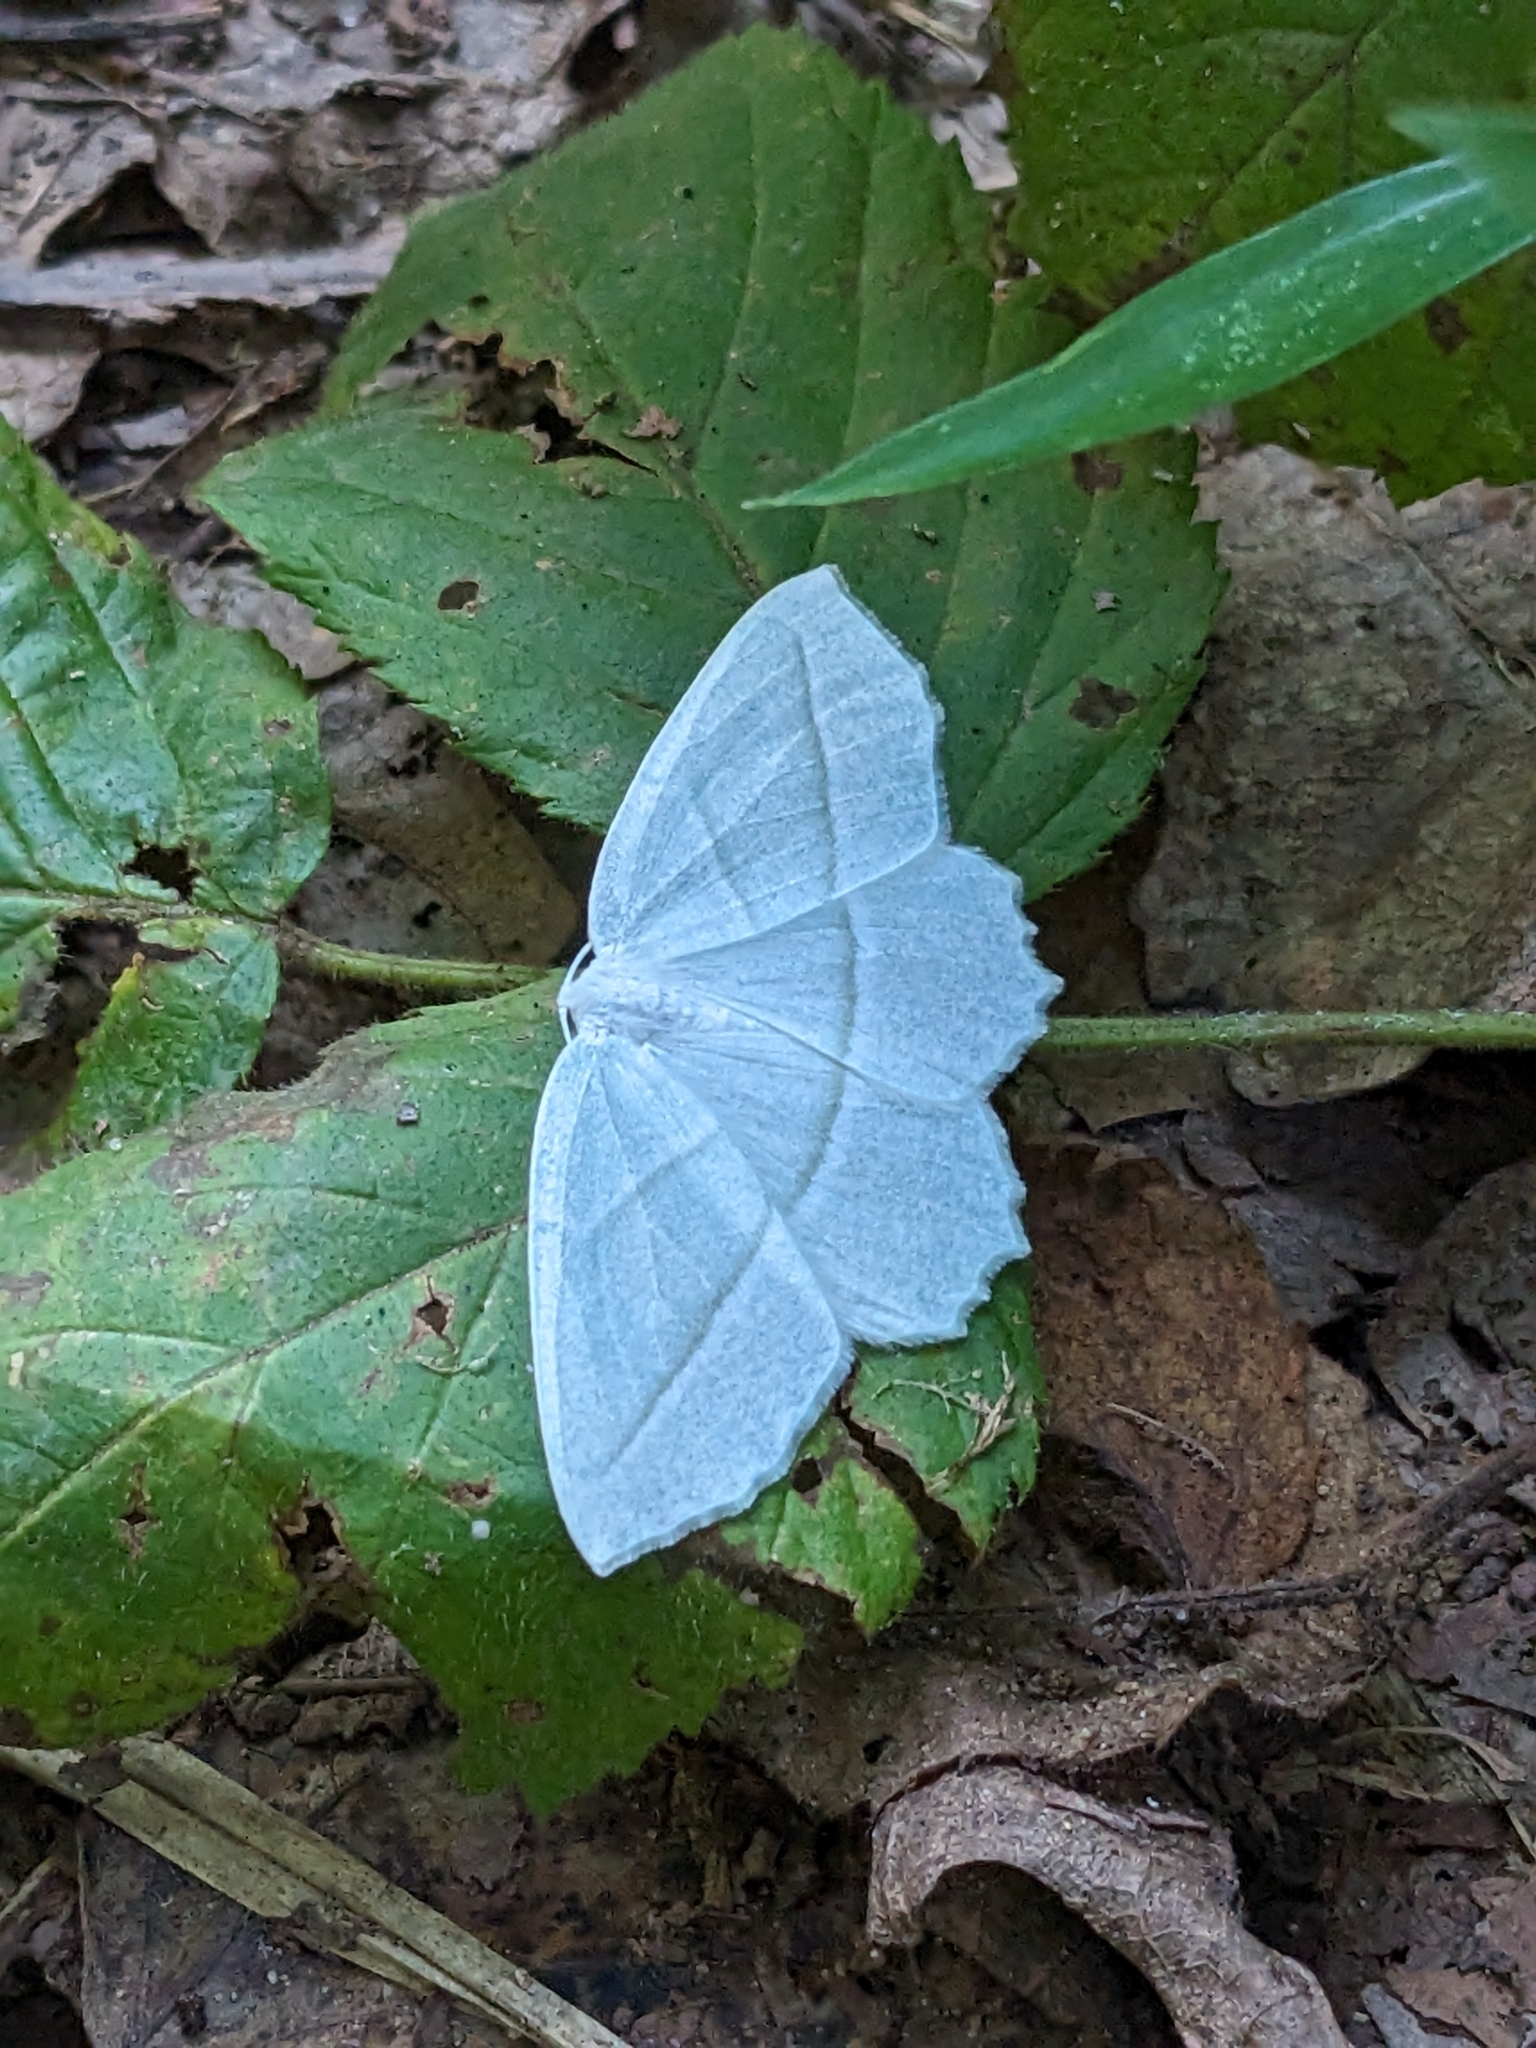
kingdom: Animalia
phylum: Arthropoda
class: Insecta
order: Lepidoptera
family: Geometridae
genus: Campaea
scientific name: Campaea perlata
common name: Fringed looper
